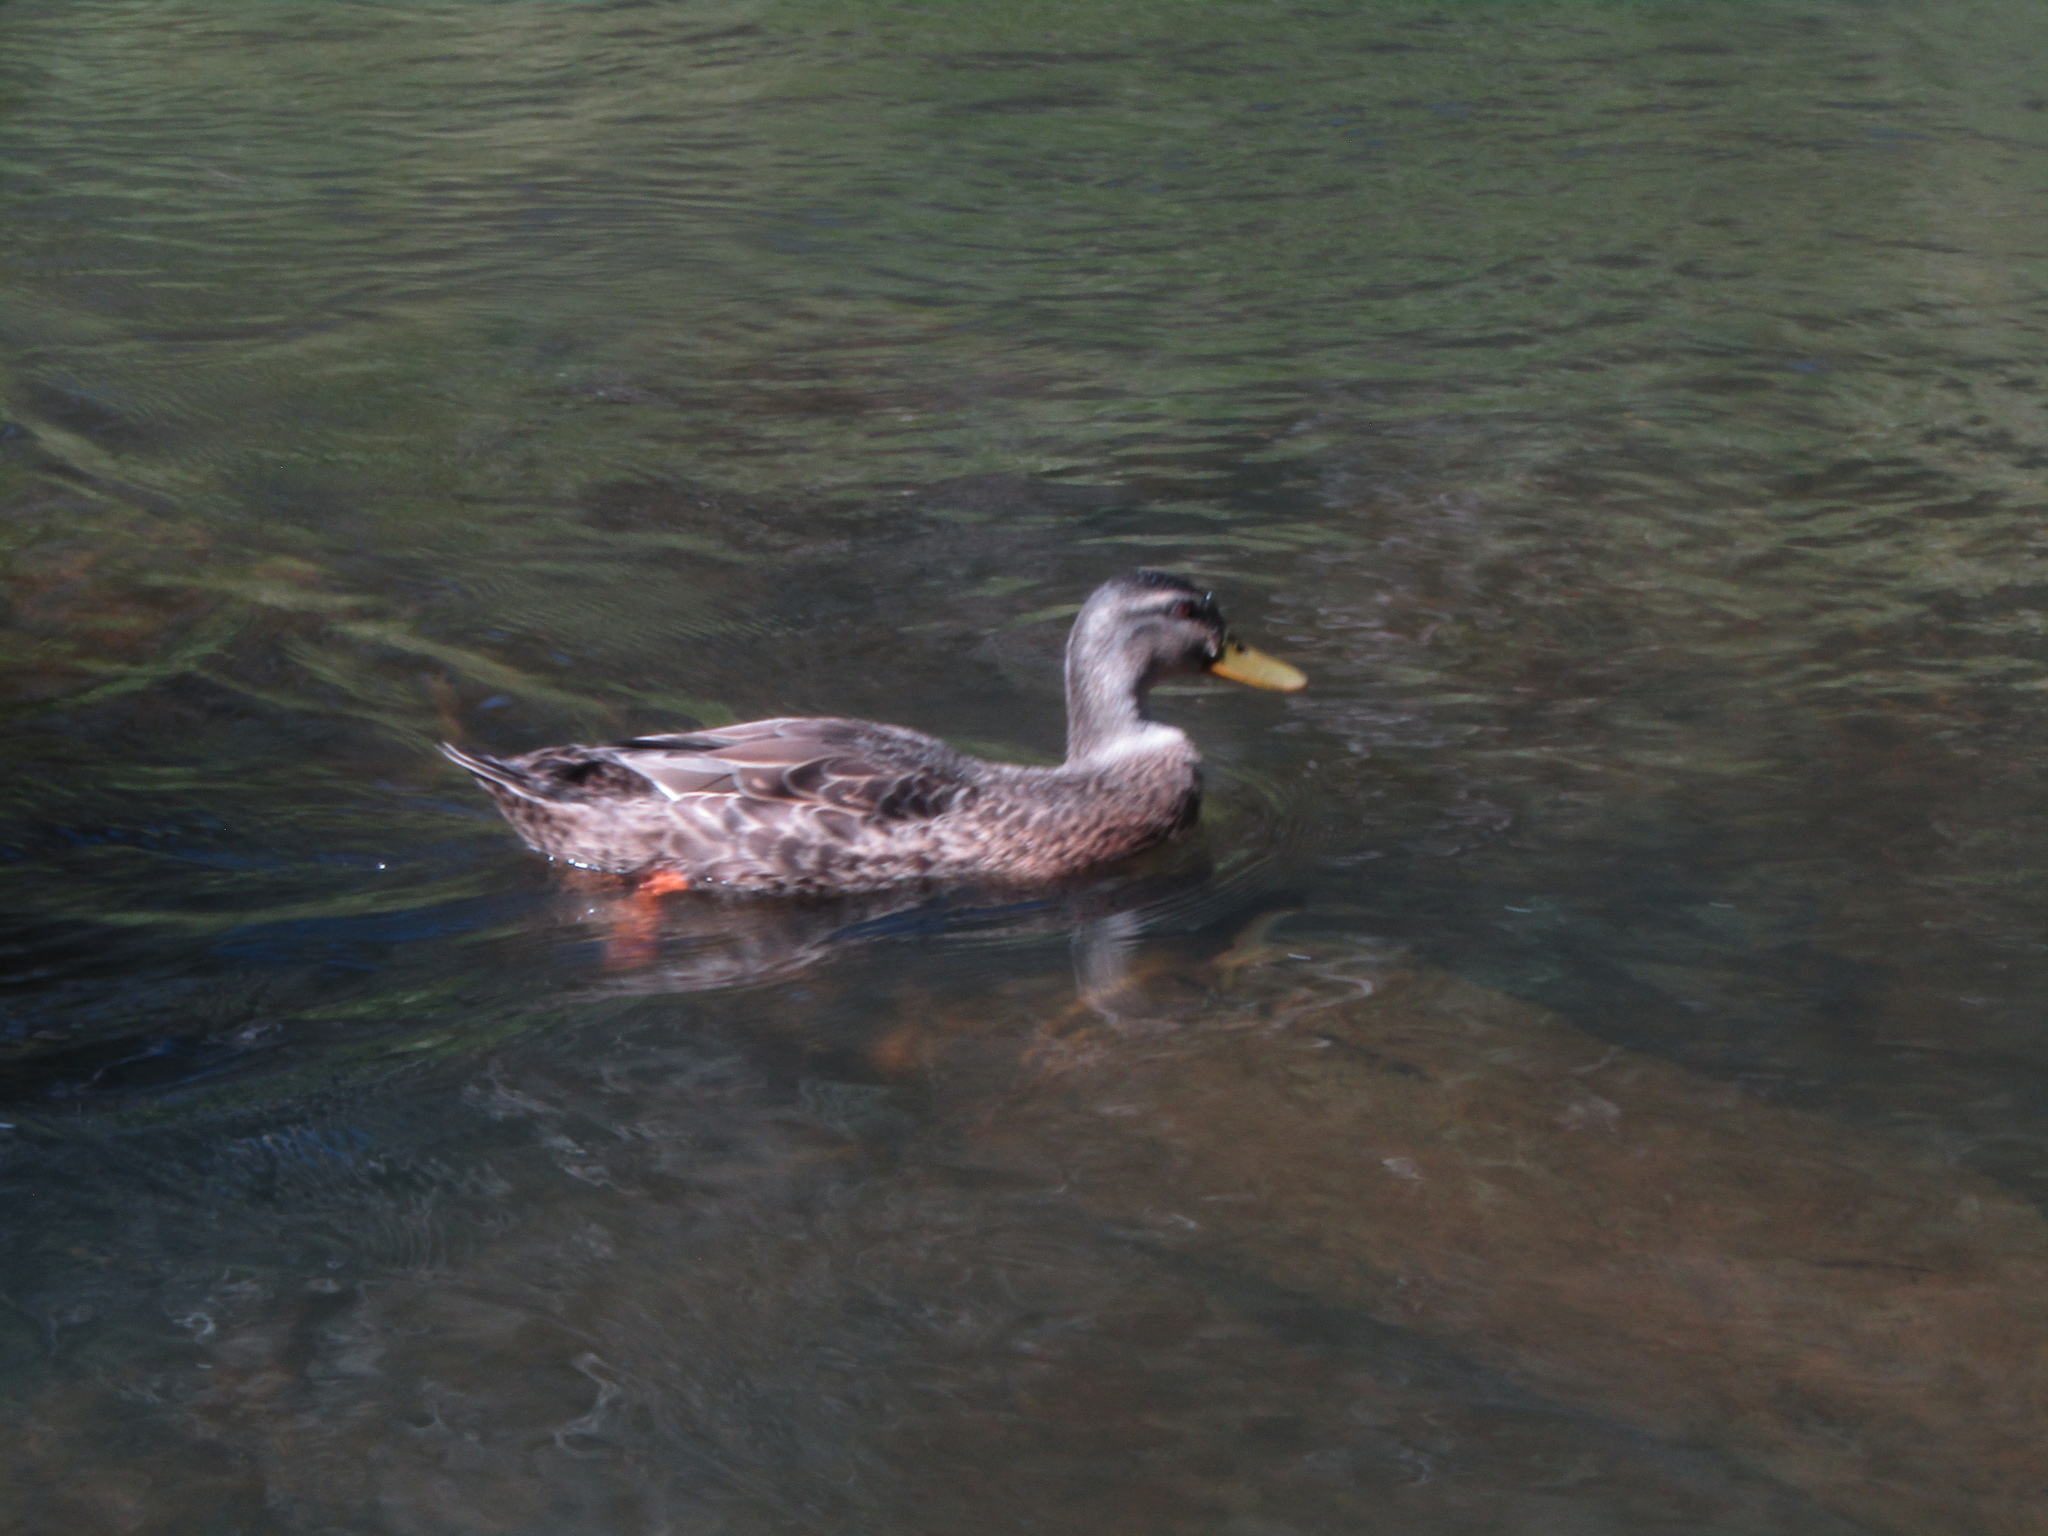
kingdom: Animalia
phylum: Chordata
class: Aves
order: Anseriformes
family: Anatidae
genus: Anas
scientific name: Anas platyrhynchos
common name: Mallard
